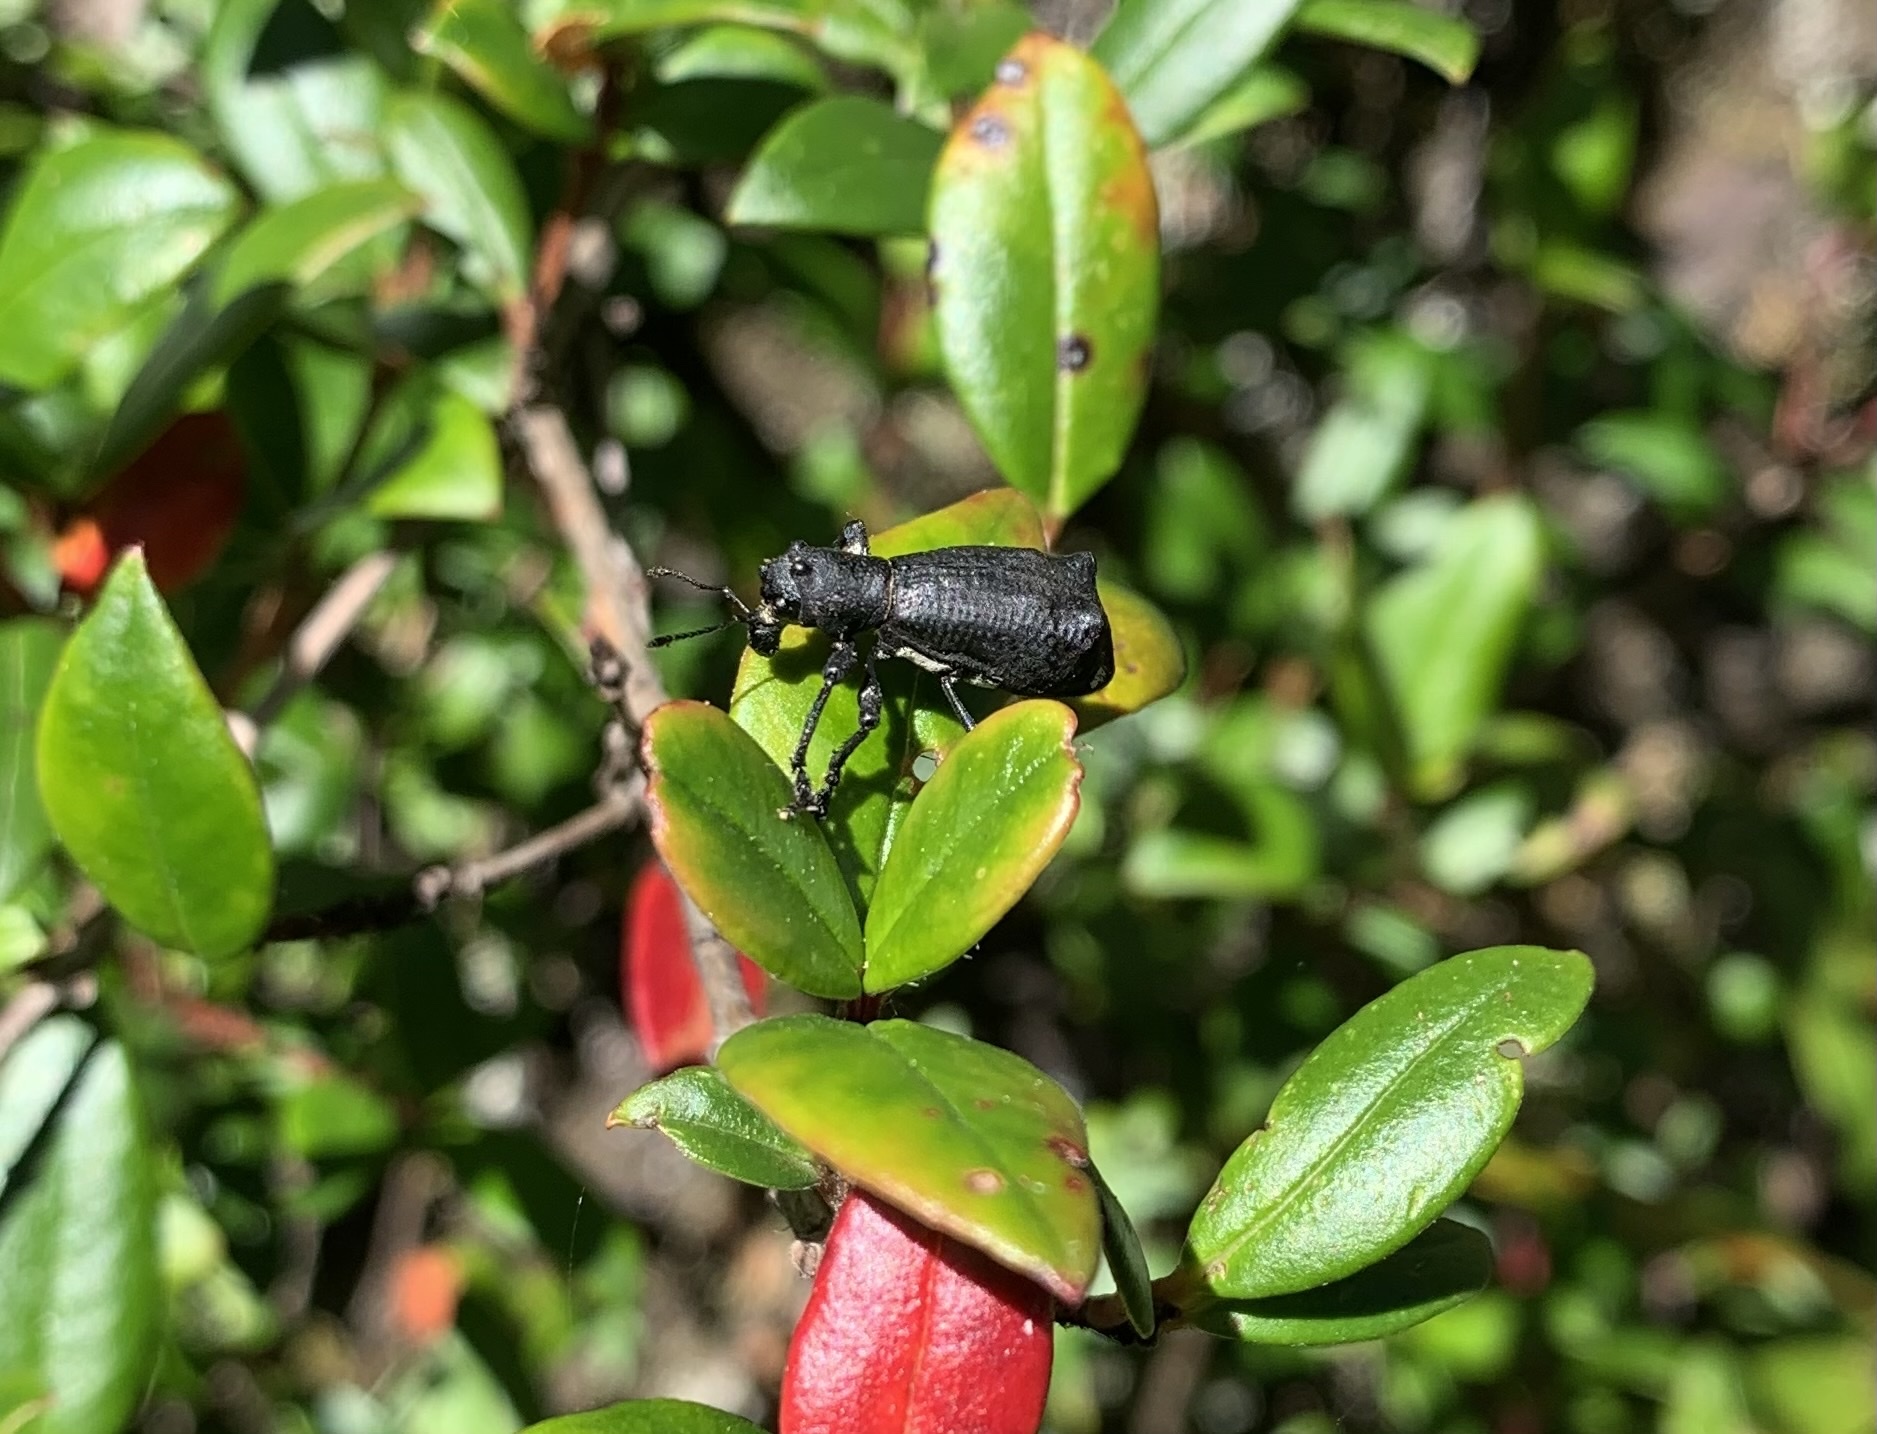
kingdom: Animalia
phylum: Arthropoda
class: Insecta
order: Coleoptera
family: Curculionidae
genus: Aegorhinus
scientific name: Aegorhinus
